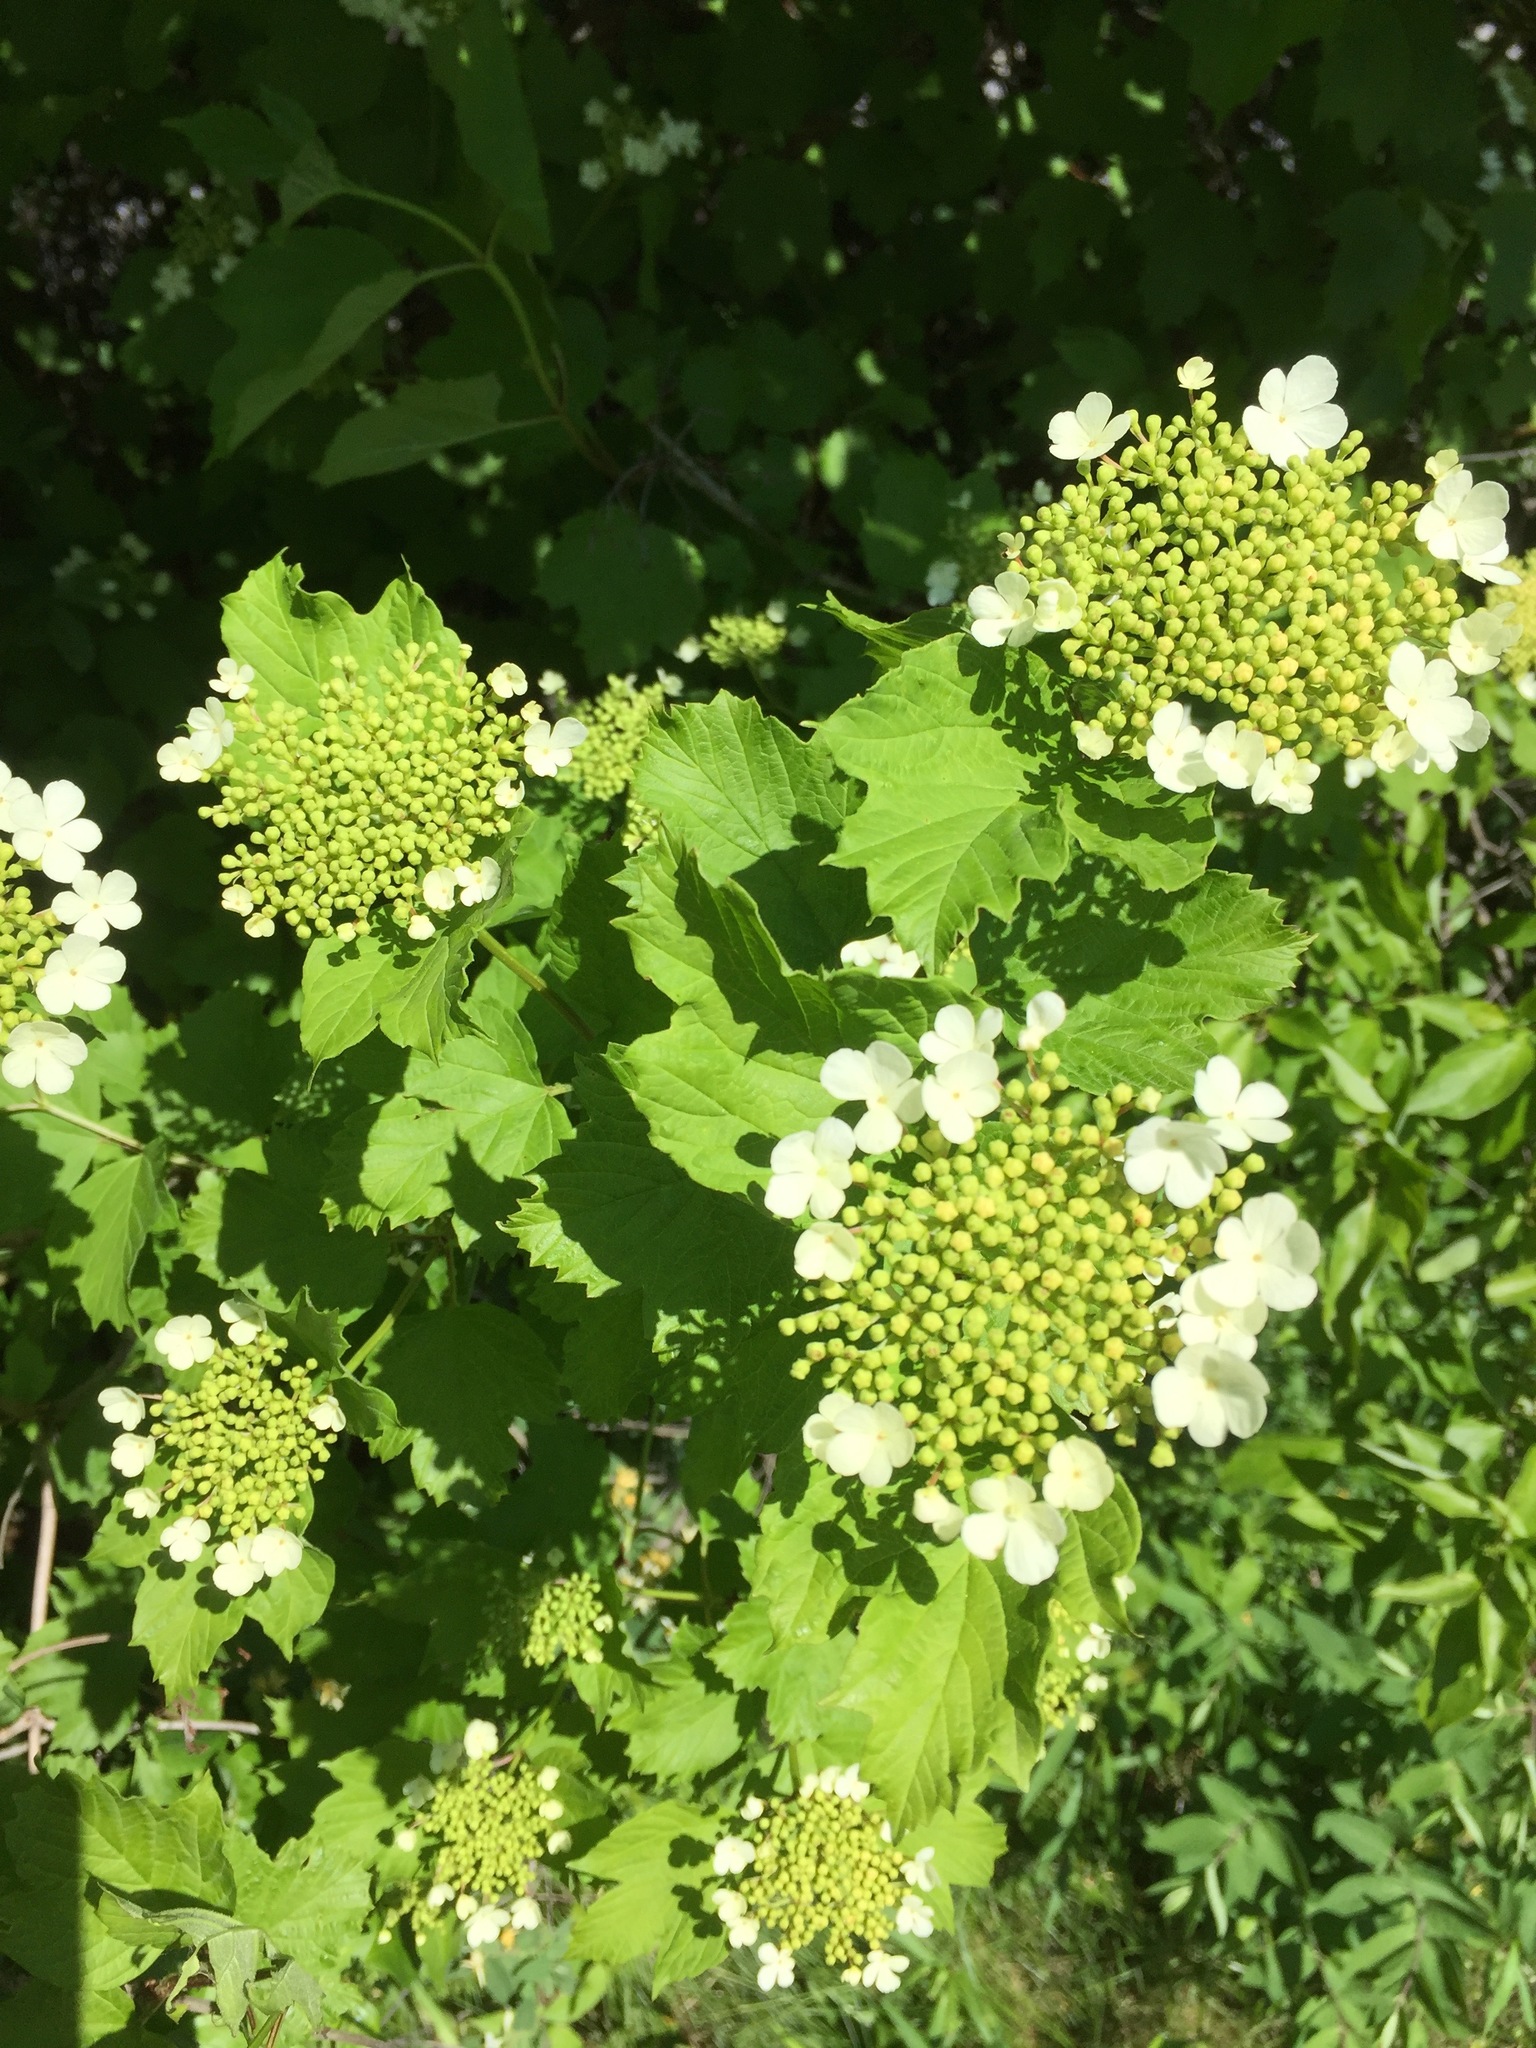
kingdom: Plantae
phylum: Tracheophyta
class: Magnoliopsida
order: Dipsacales
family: Viburnaceae
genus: Viburnum
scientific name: Viburnum opulus
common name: Guelder-rose
